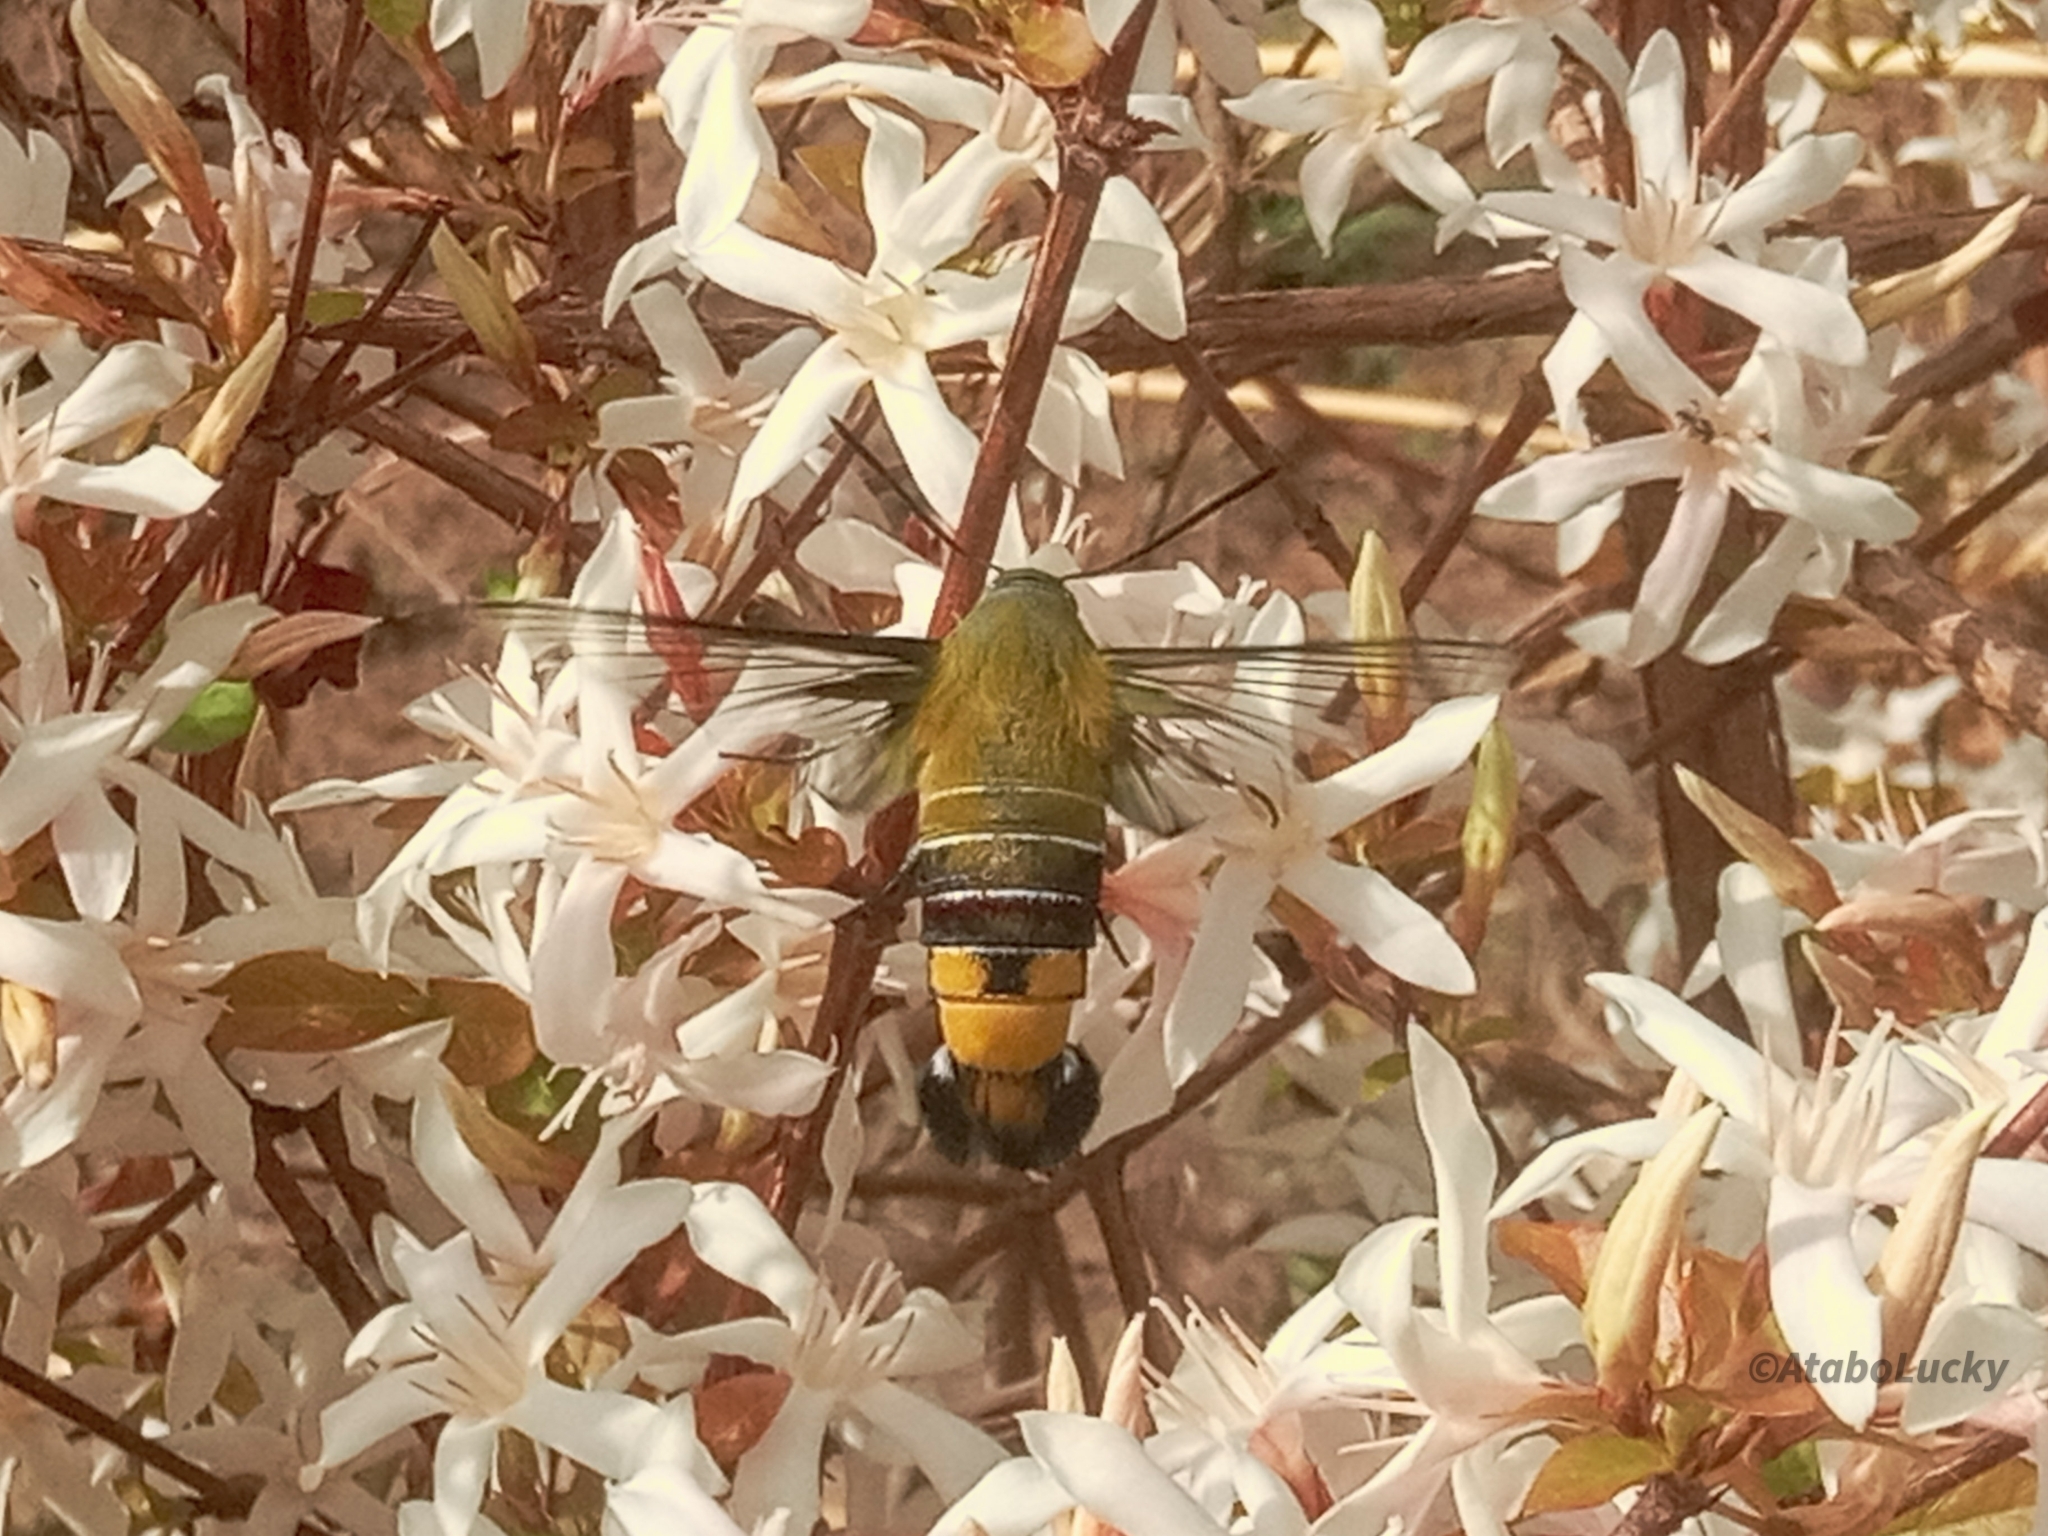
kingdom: Animalia
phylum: Arthropoda
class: Insecta
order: Lepidoptera
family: Sphingidae
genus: Cephonodes
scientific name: Cephonodes hylas
